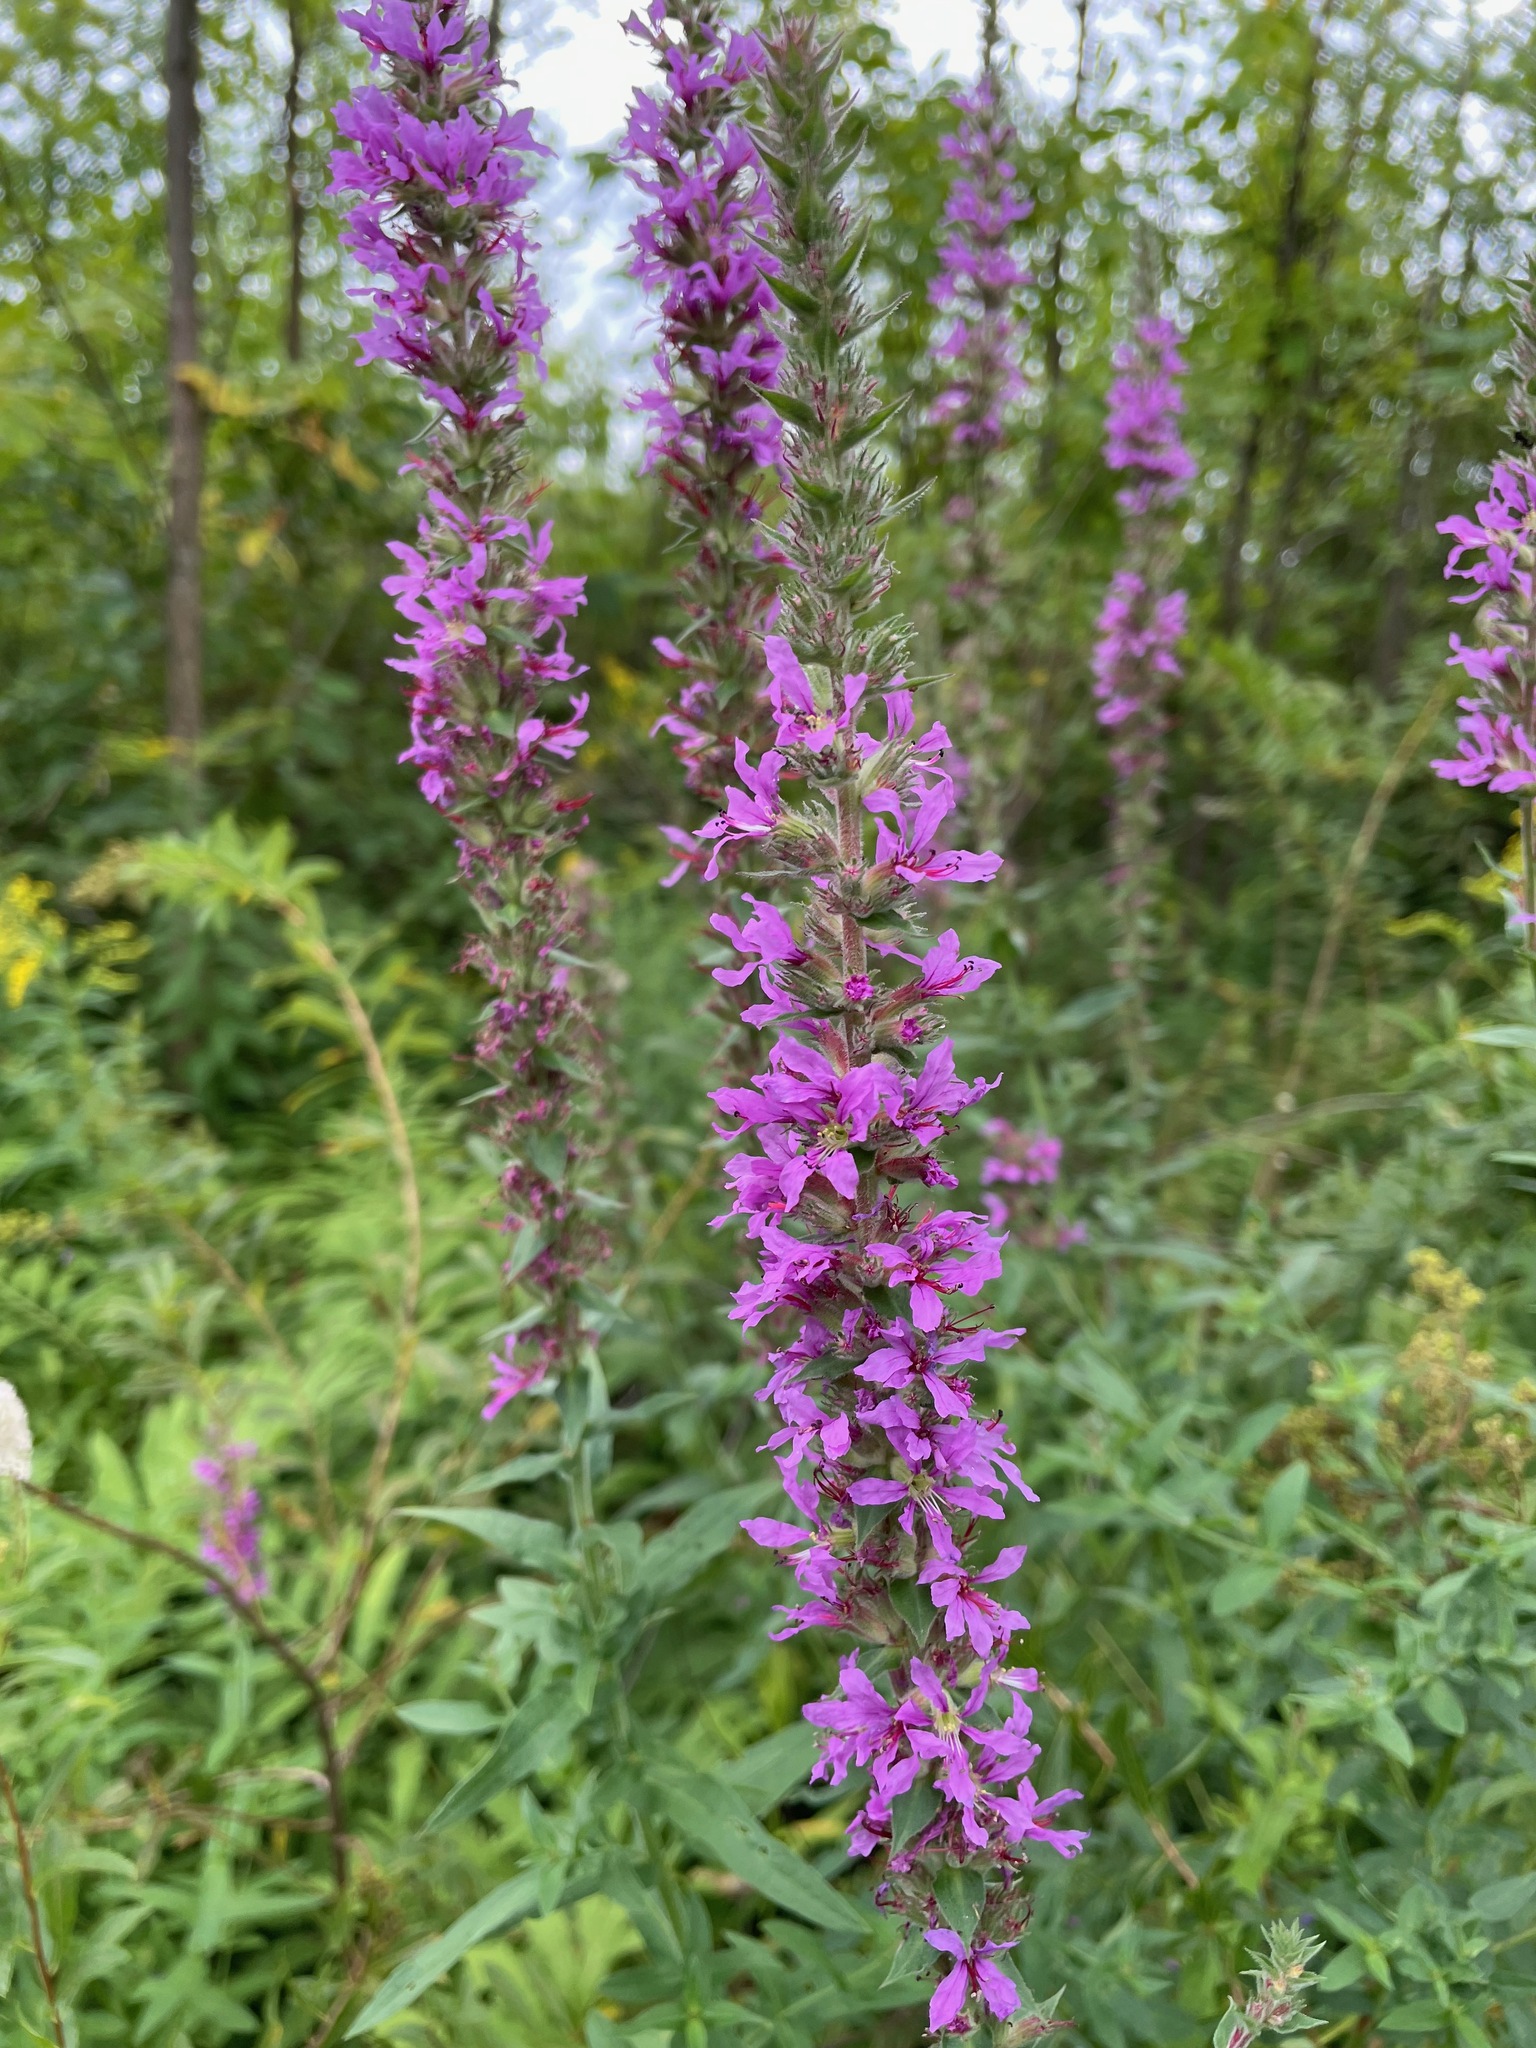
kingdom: Plantae
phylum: Tracheophyta
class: Magnoliopsida
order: Myrtales
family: Lythraceae
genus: Lythrum
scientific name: Lythrum salicaria
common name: Purple loosestrife
